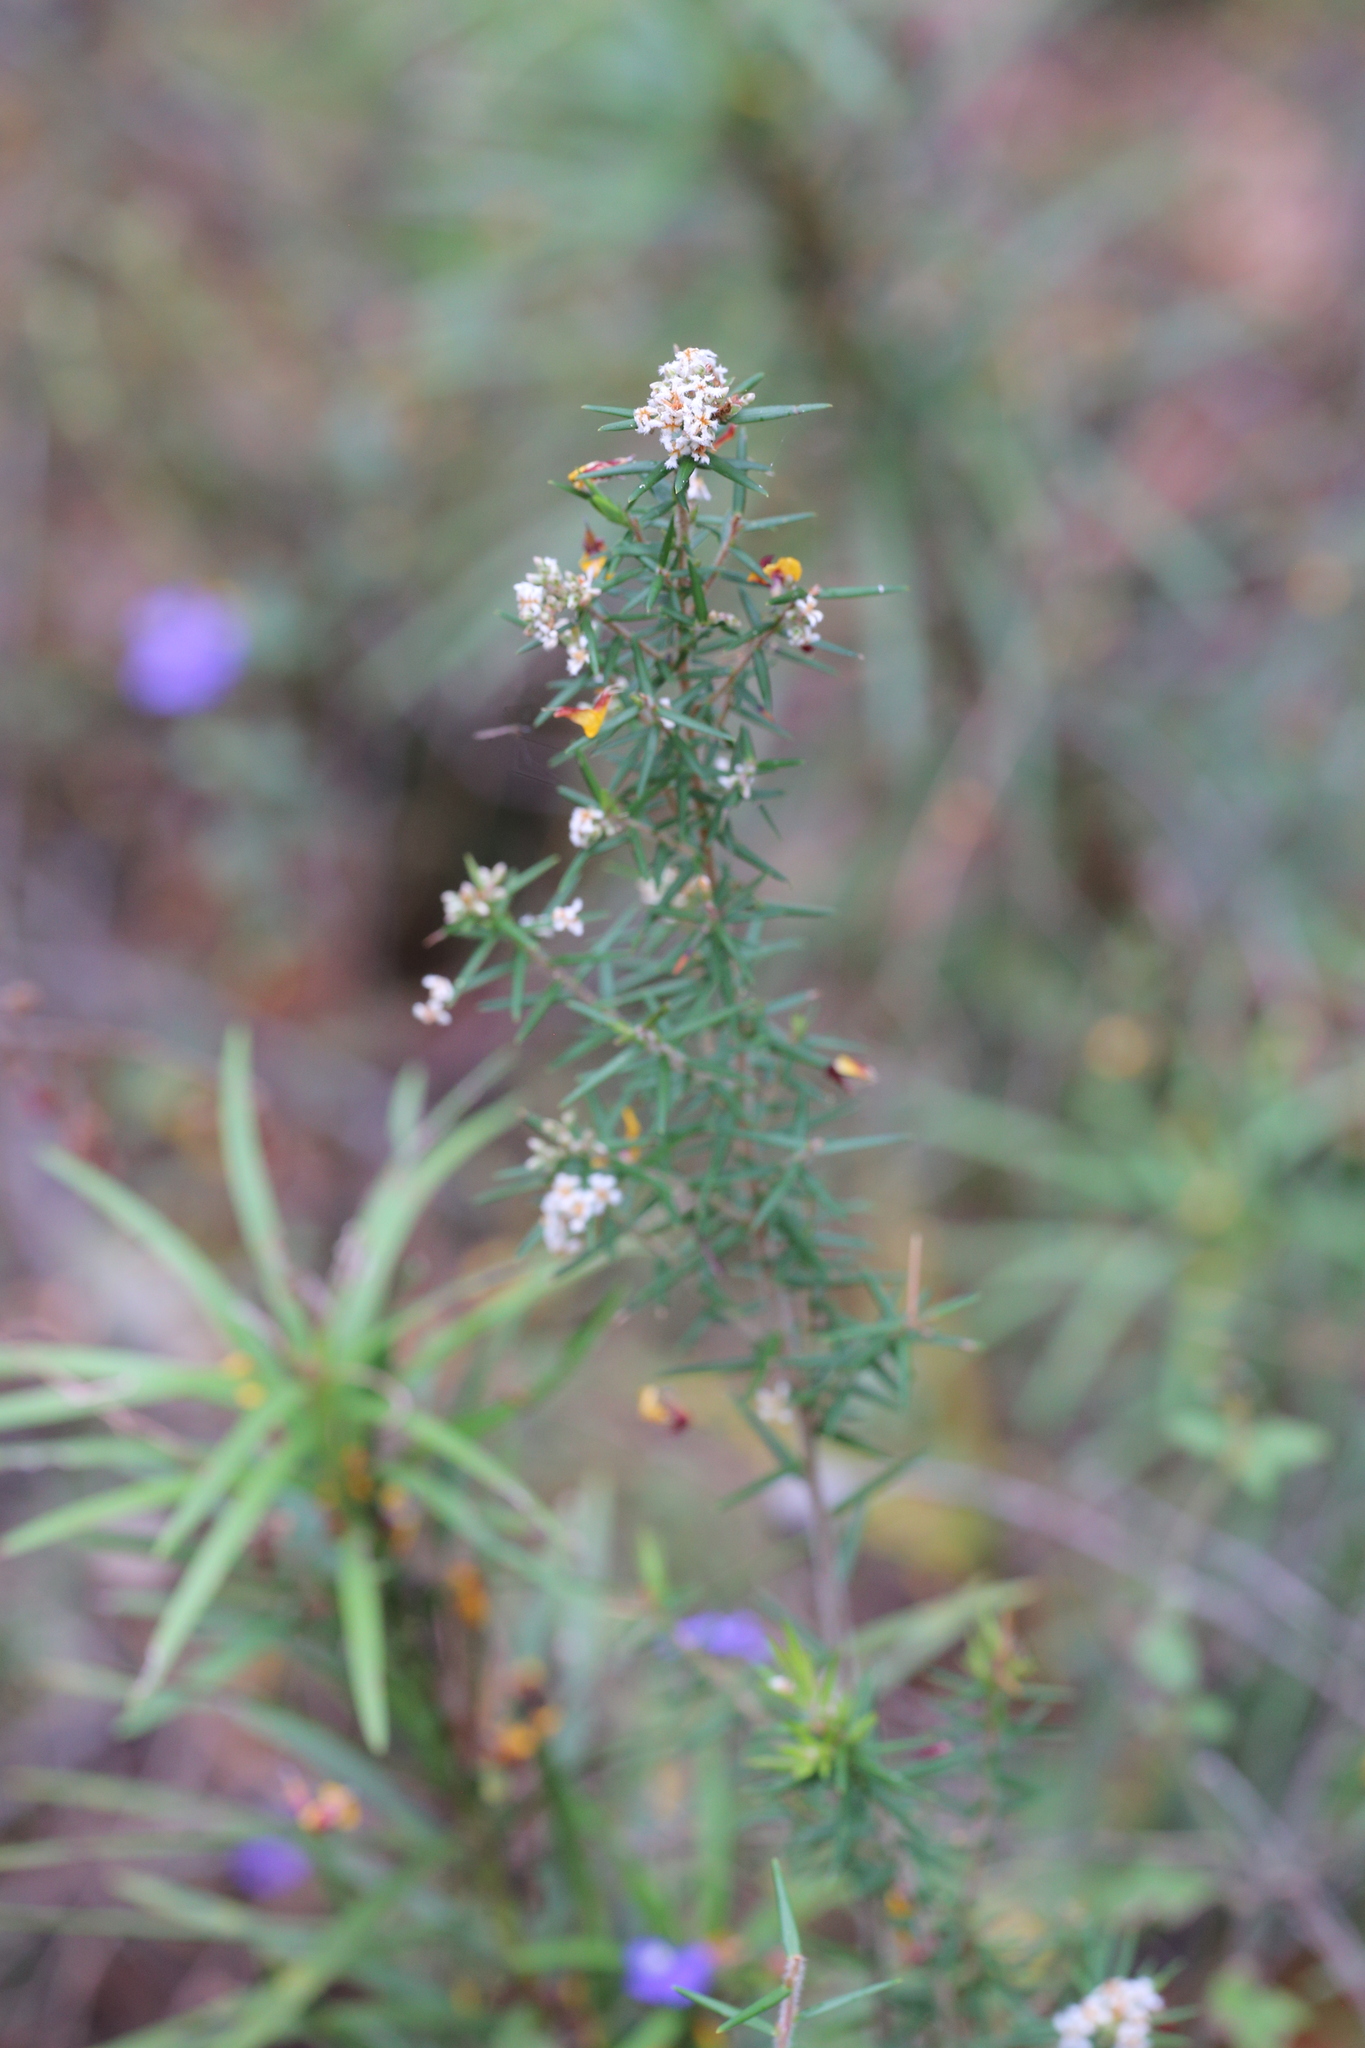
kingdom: Plantae
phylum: Tracheophyta
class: Magnoliopsida
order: Ericales
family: Ericaceae
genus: Leucopogon
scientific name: Leucopogon obovatus
